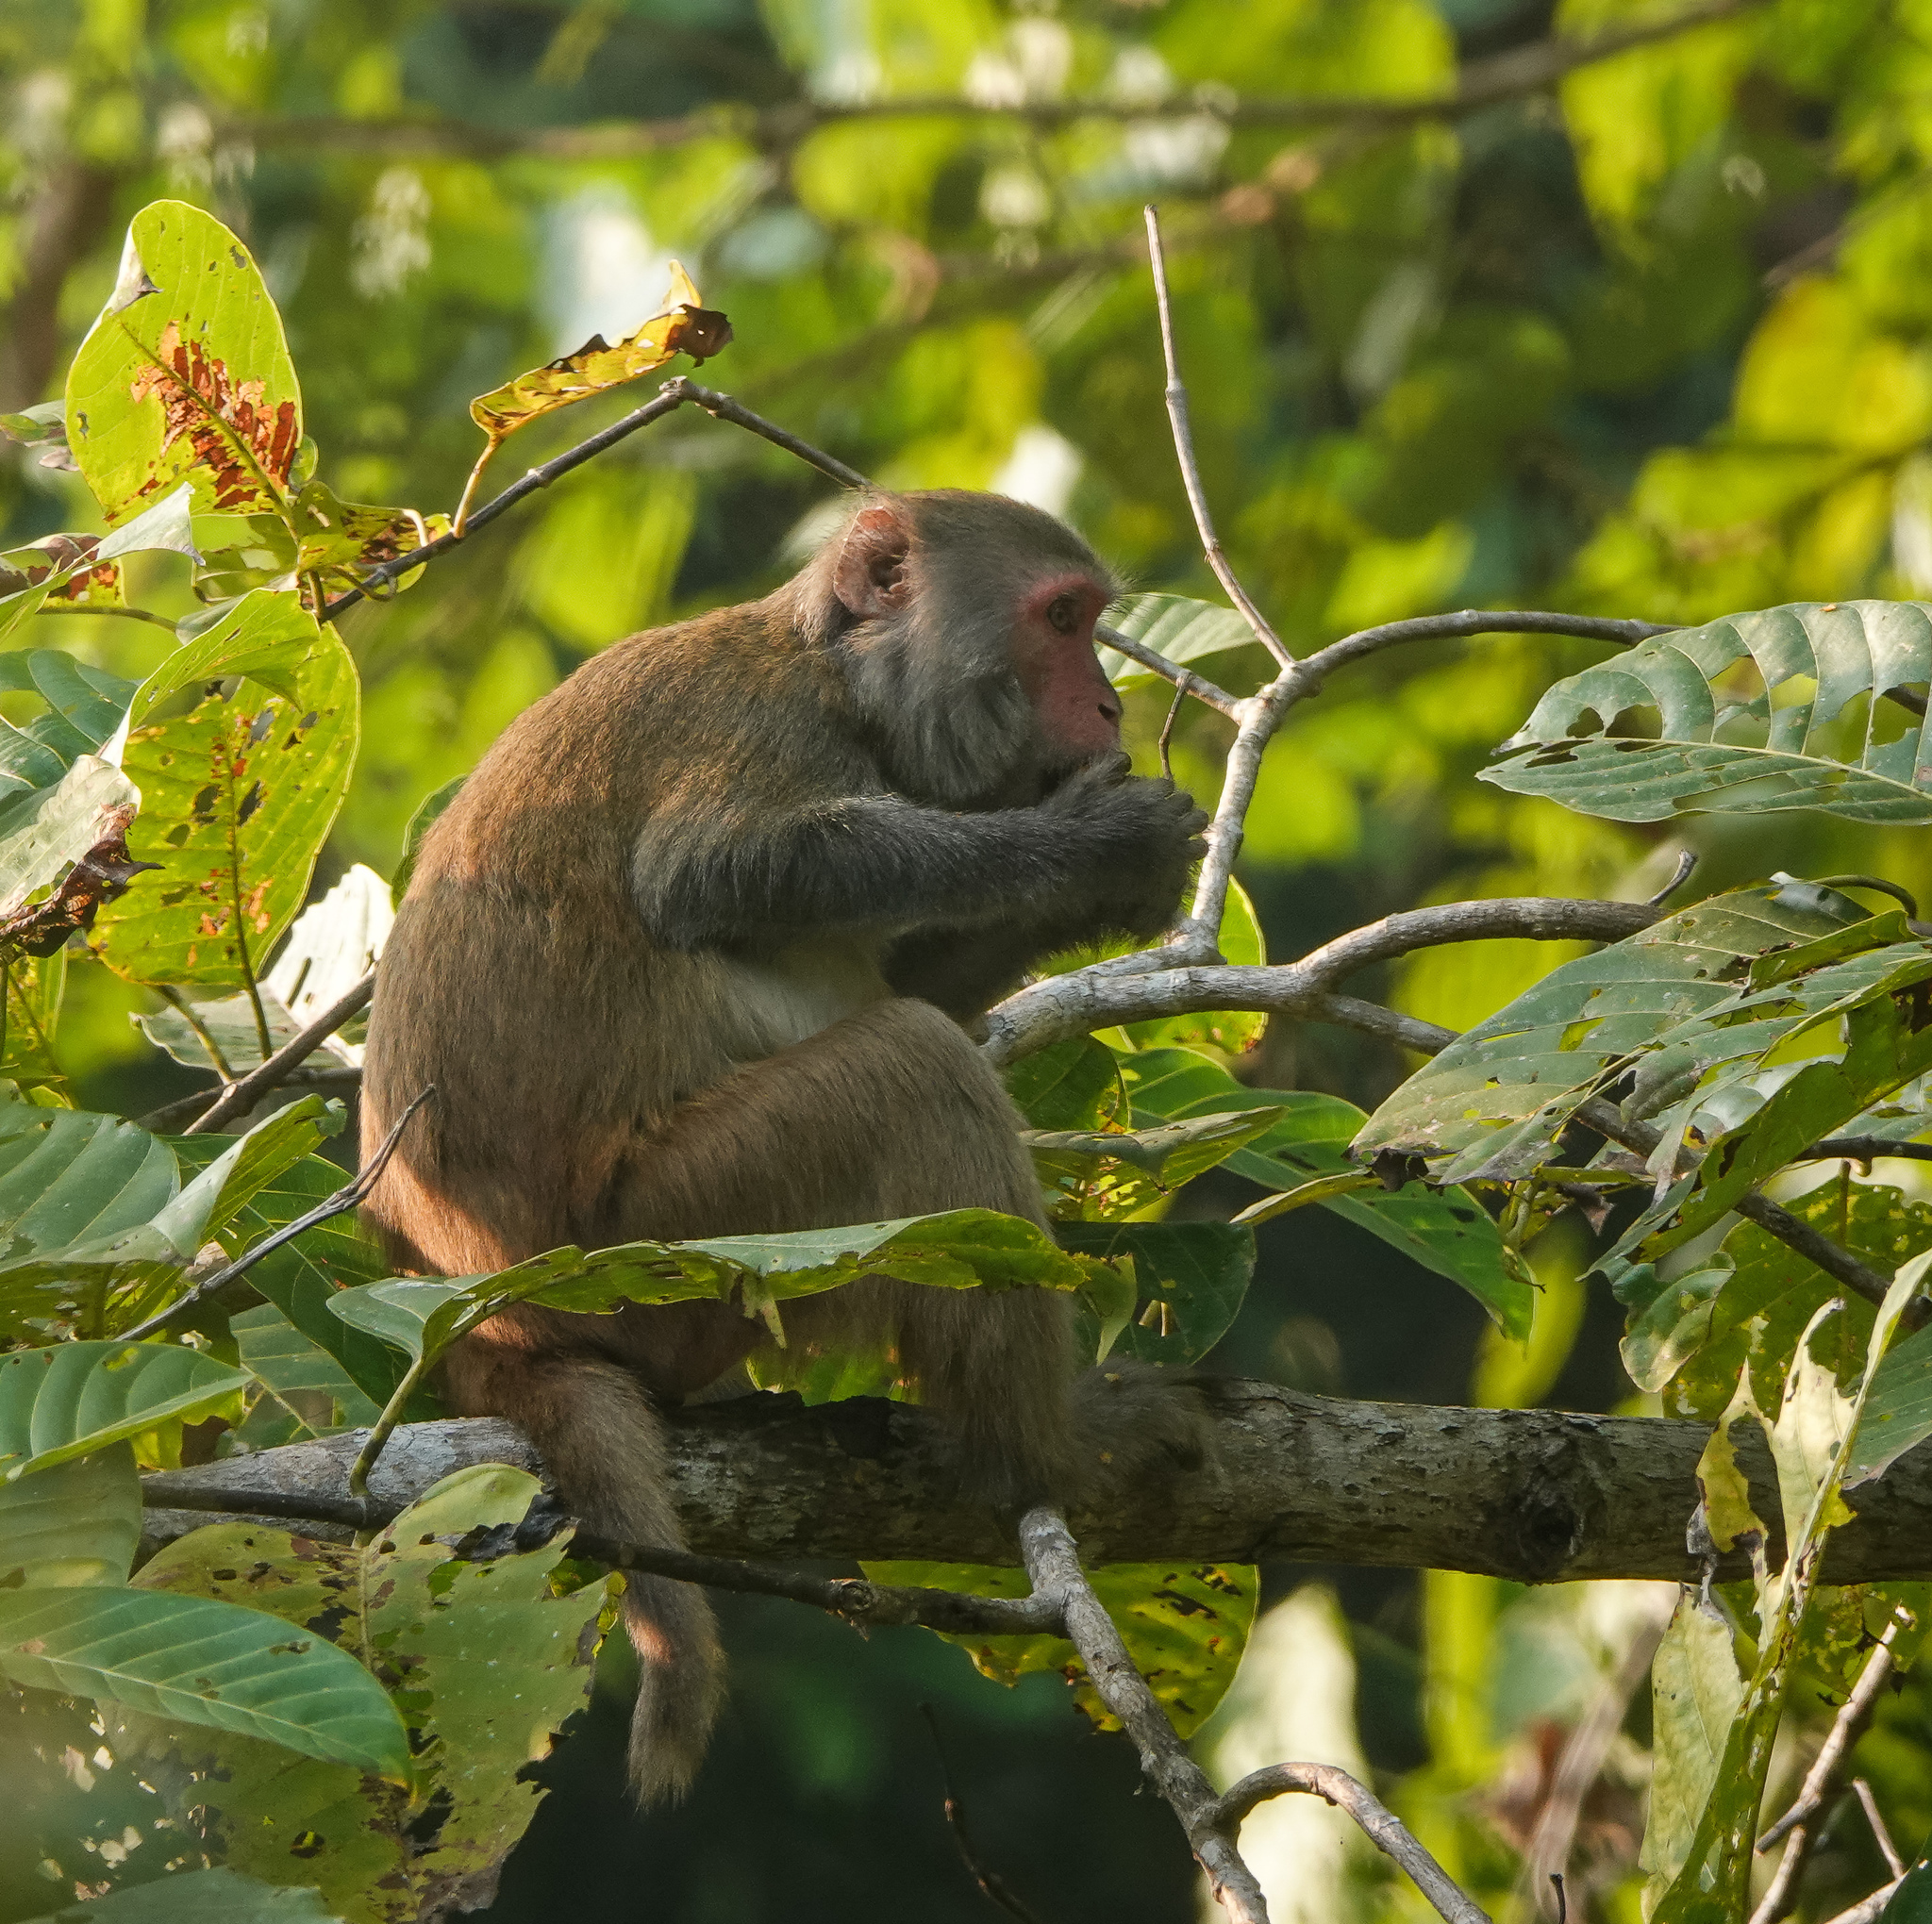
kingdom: Animalia
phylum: Chordata
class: Mammalia
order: Primates
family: Cercopithecidae
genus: Macaca
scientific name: Macaca mulatta
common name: Rhesus monkey
